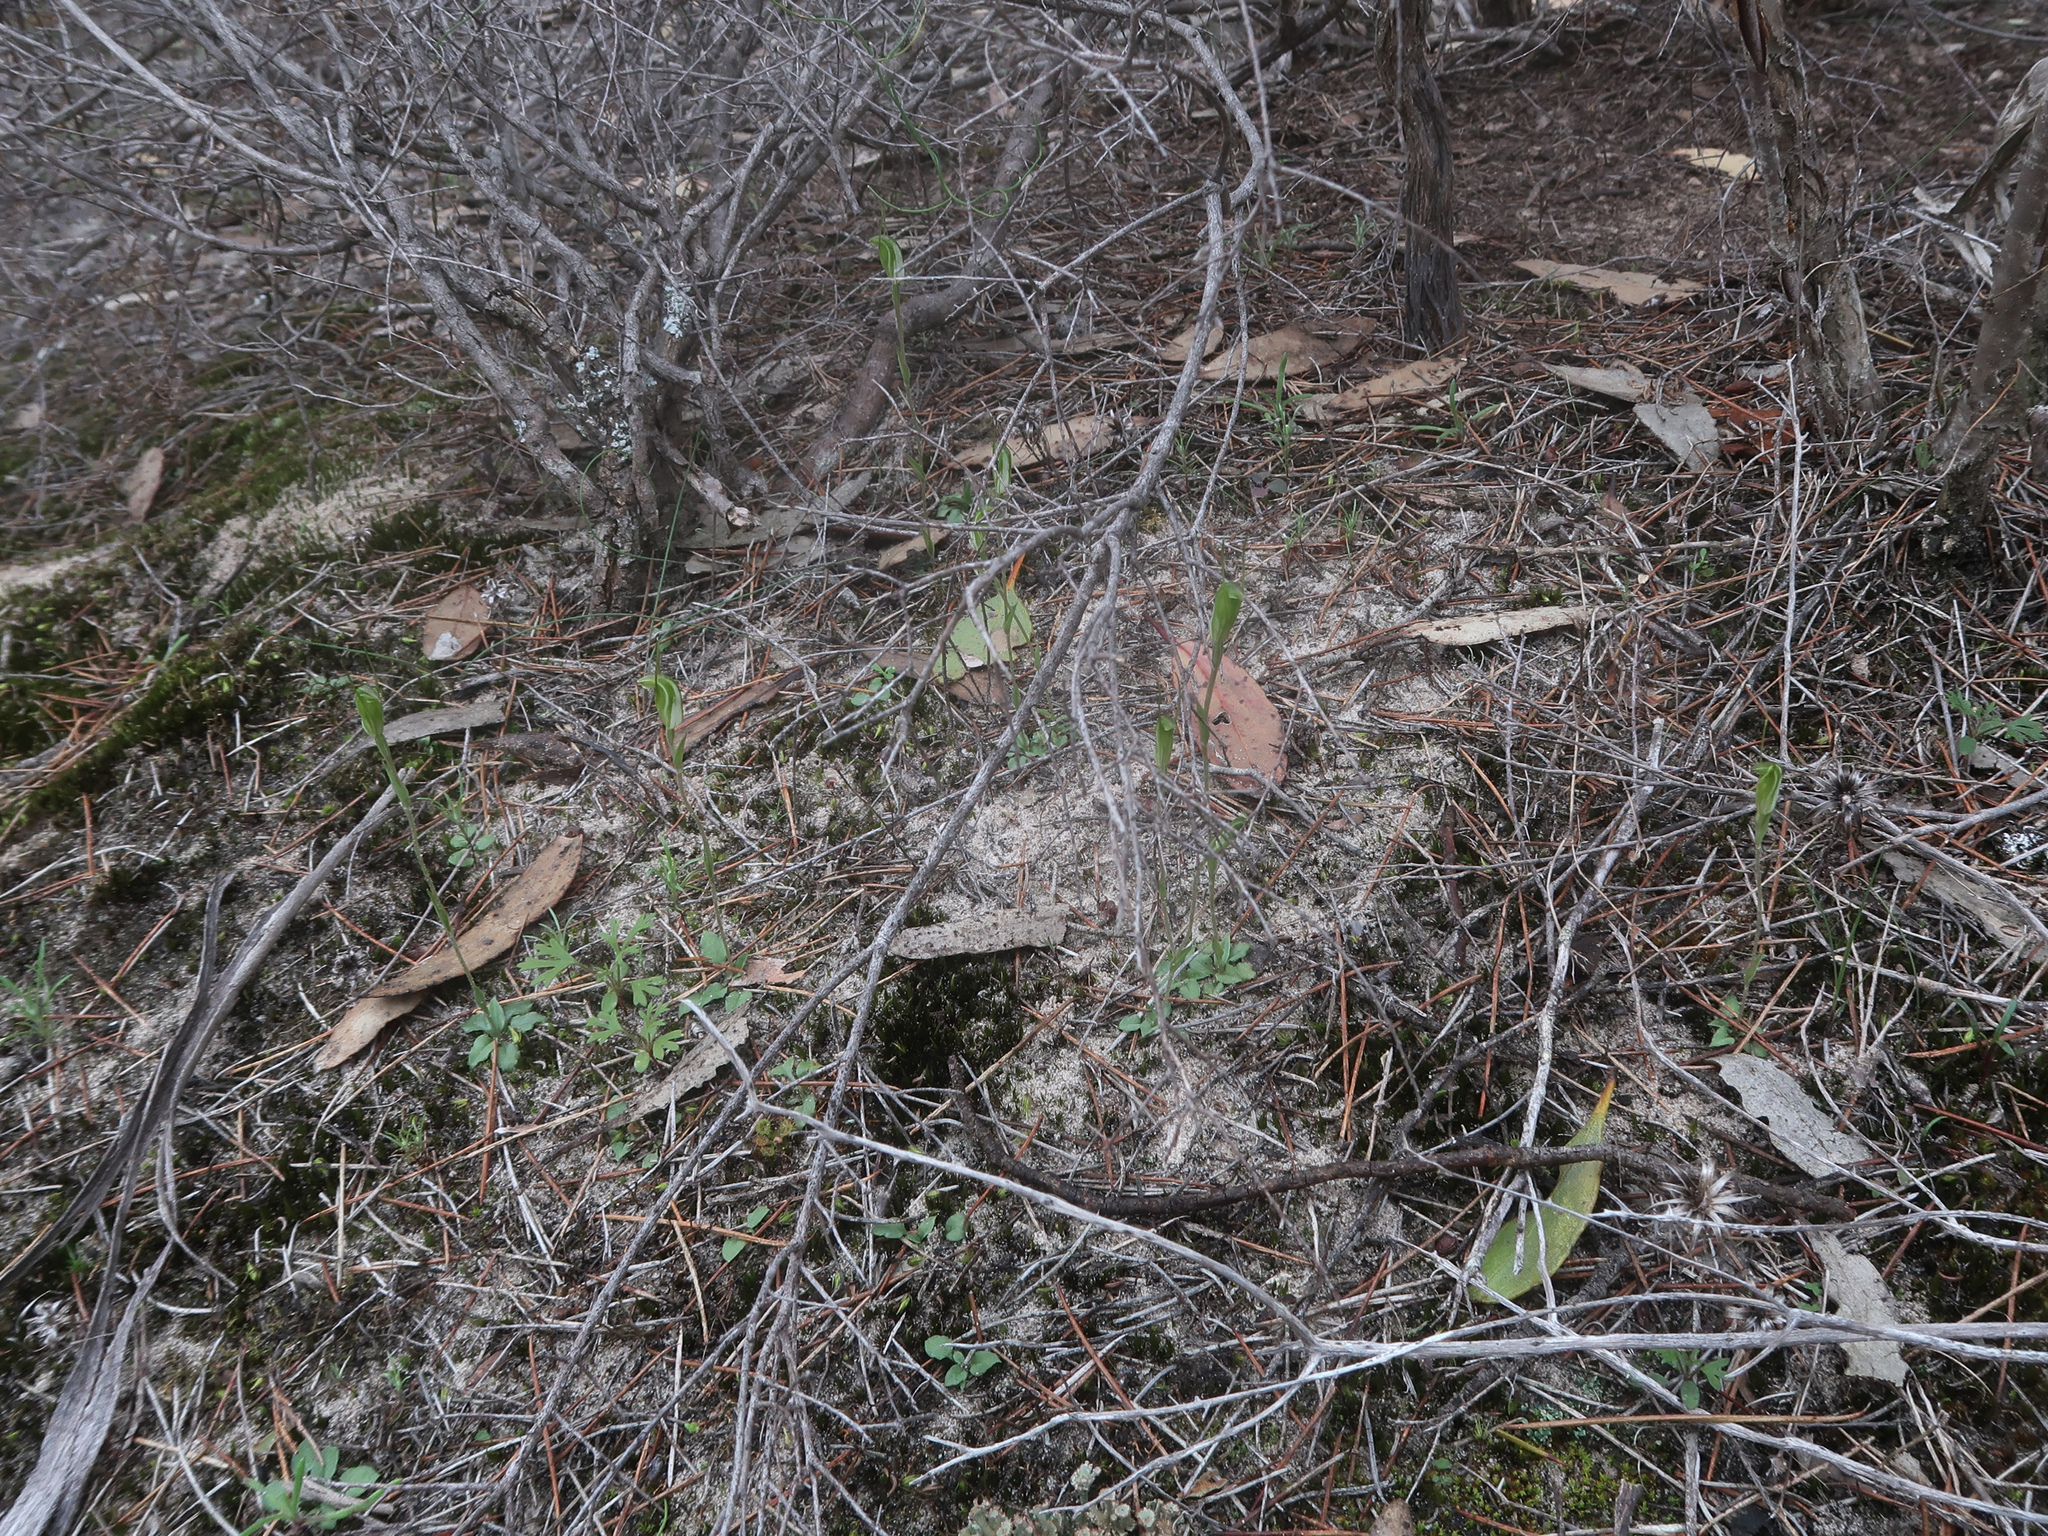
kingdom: Plantae
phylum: Tracheophyta
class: Liliopsida
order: Asparagales
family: Orchidaceae
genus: Pterostylis
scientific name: Pterostylis nana
